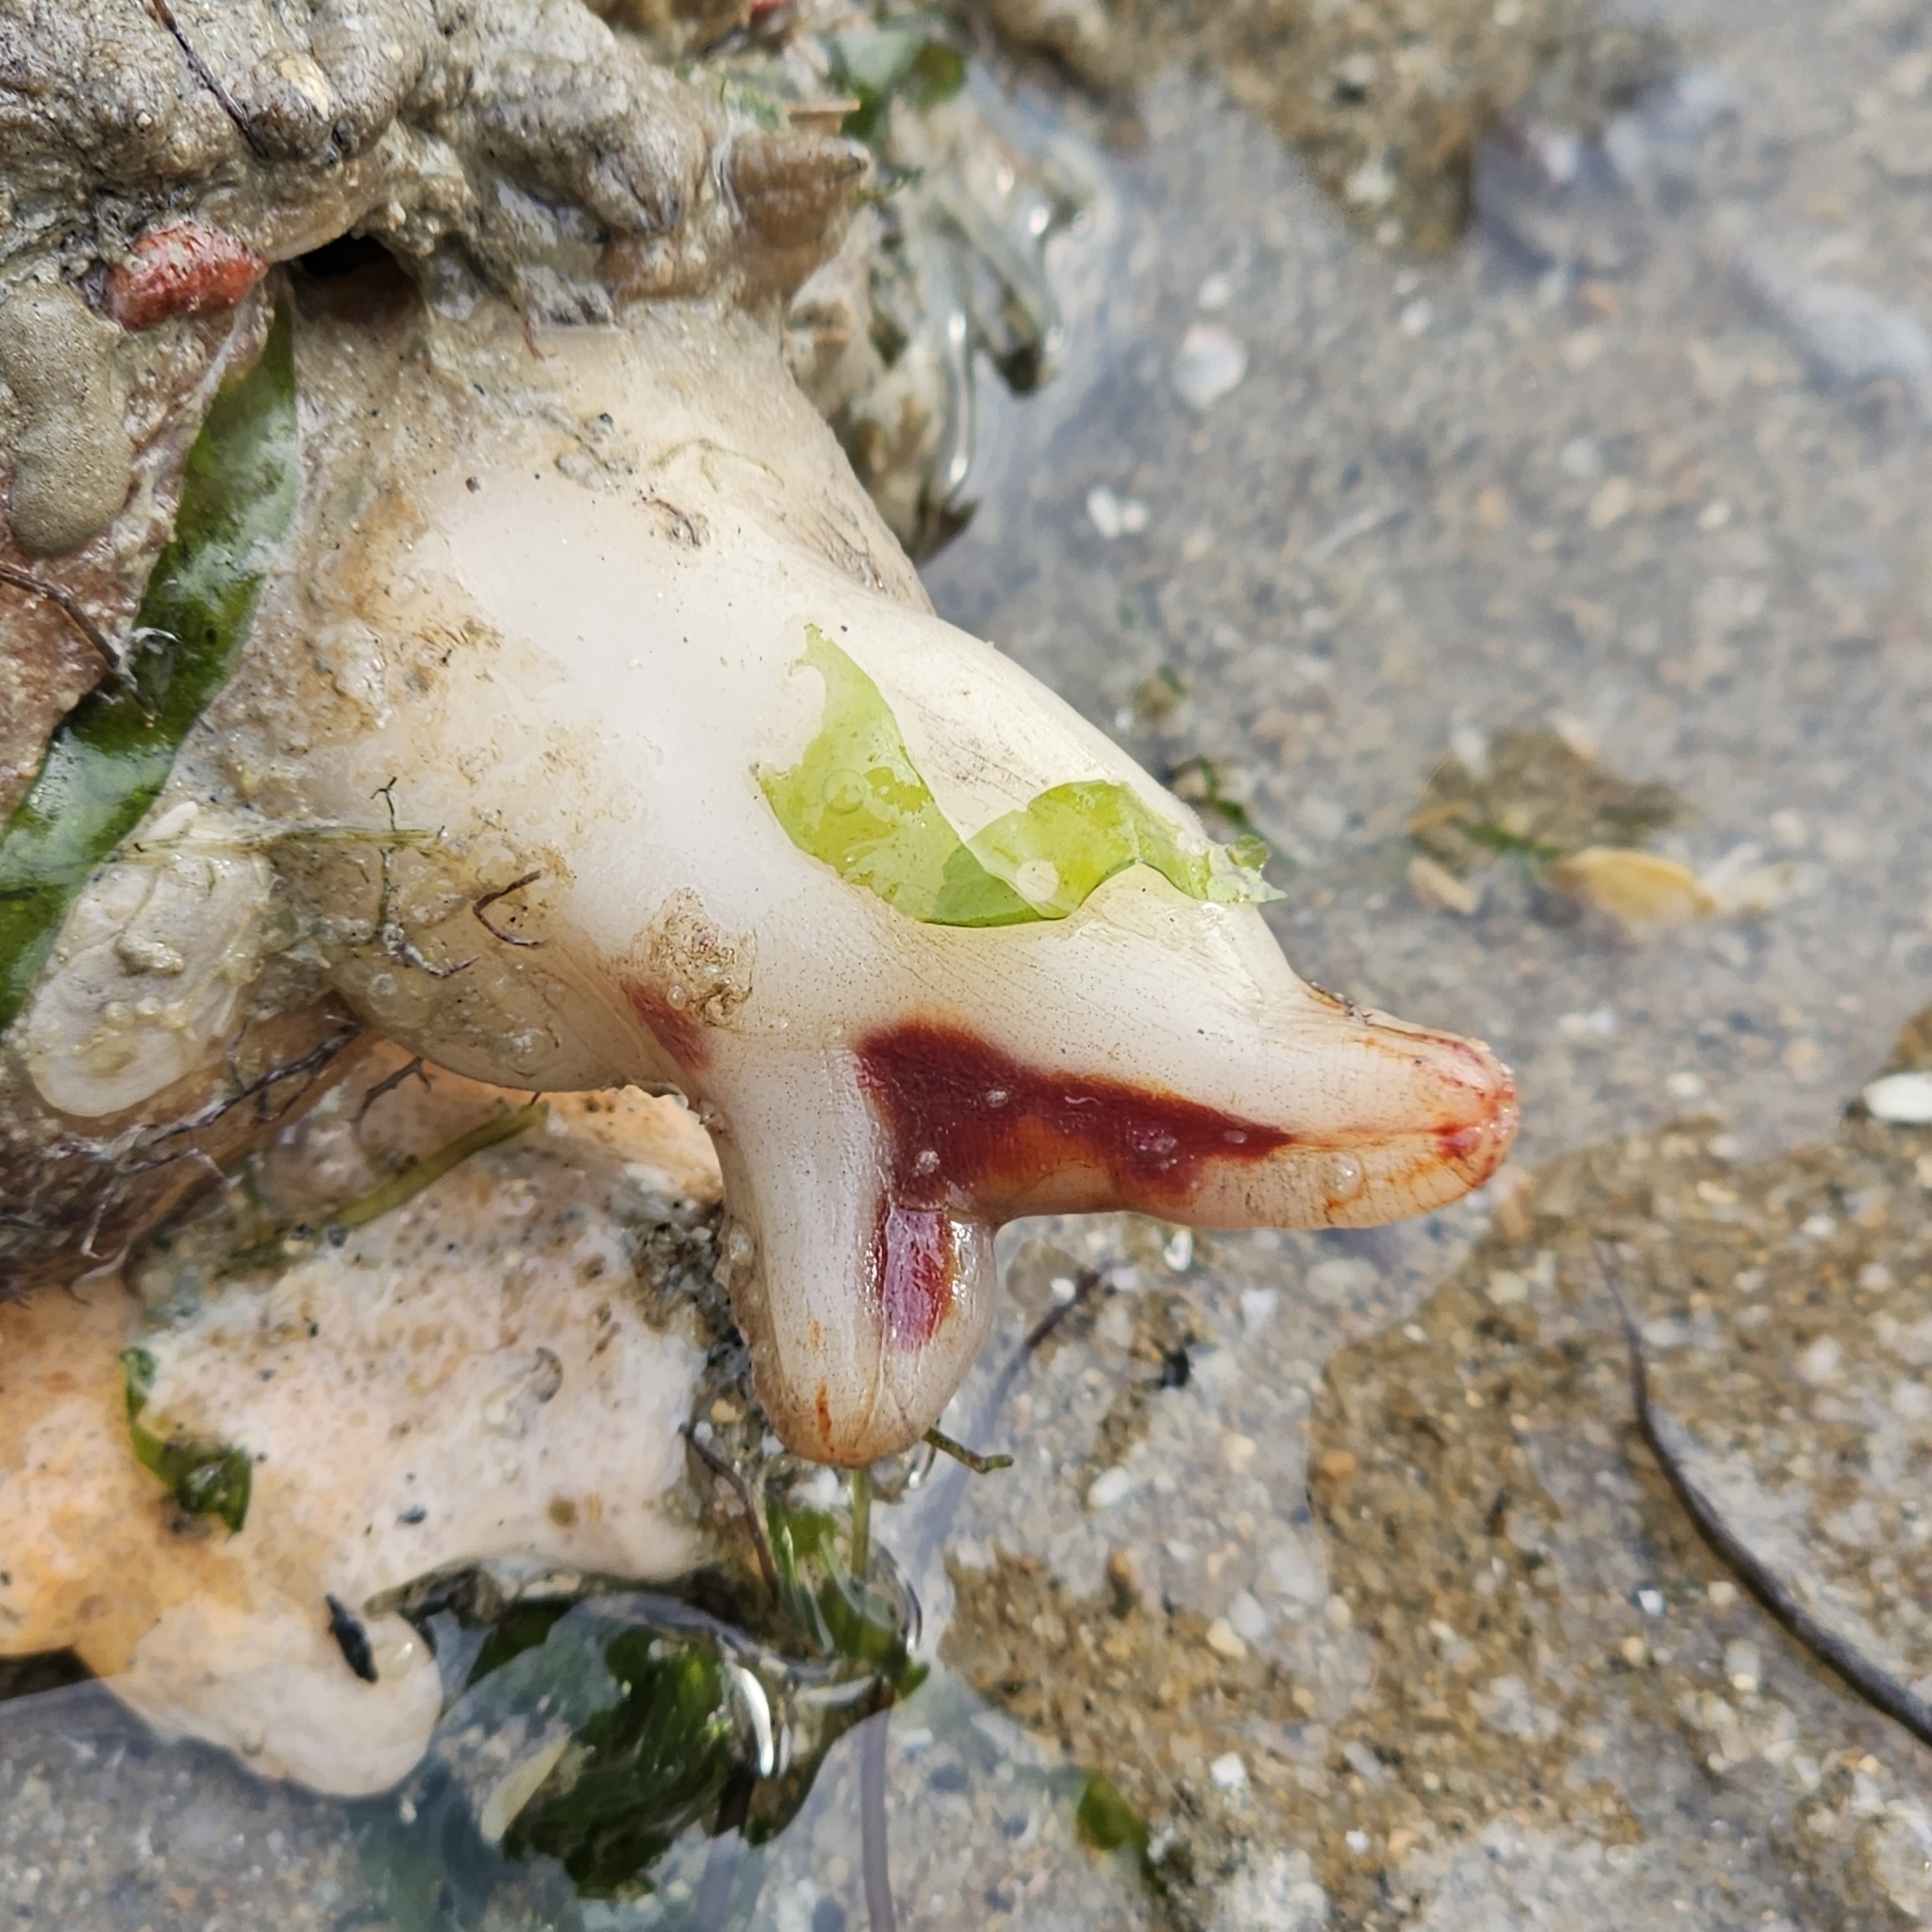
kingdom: Animalia
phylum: Chordata
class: Ascidiacea
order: Stolidobranchia
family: Styelidae
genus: Polycarpa
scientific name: Polycarpa papillata
